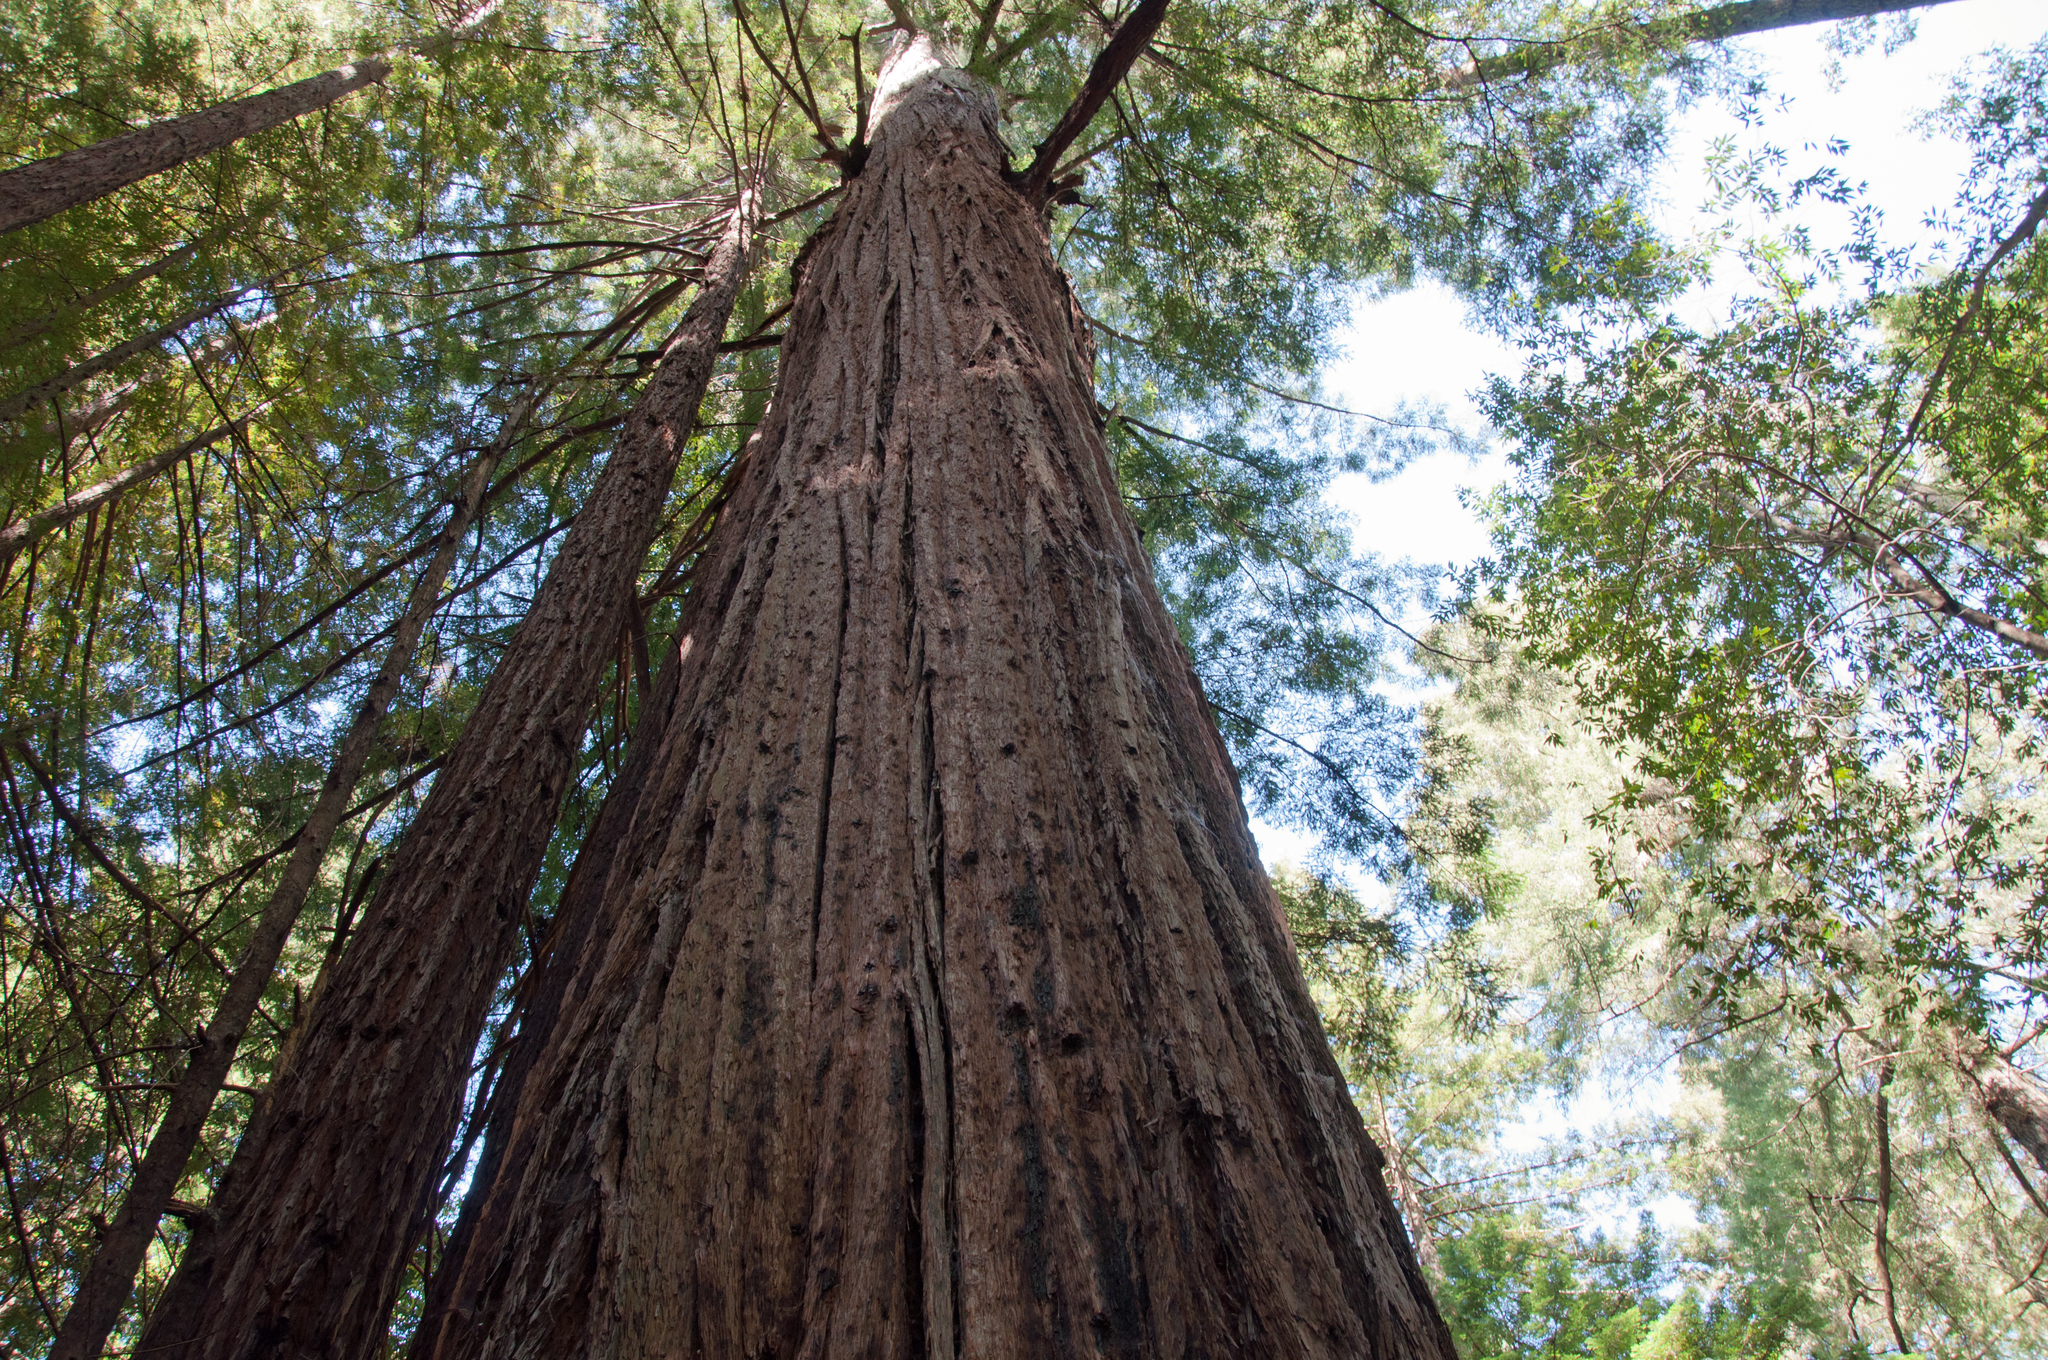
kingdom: Plantae
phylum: Tracheophyta
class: Pinopsida
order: Pinales
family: Cupressaceae
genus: Sequoia
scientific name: Sequoia sempervirens
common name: Coast redwood
